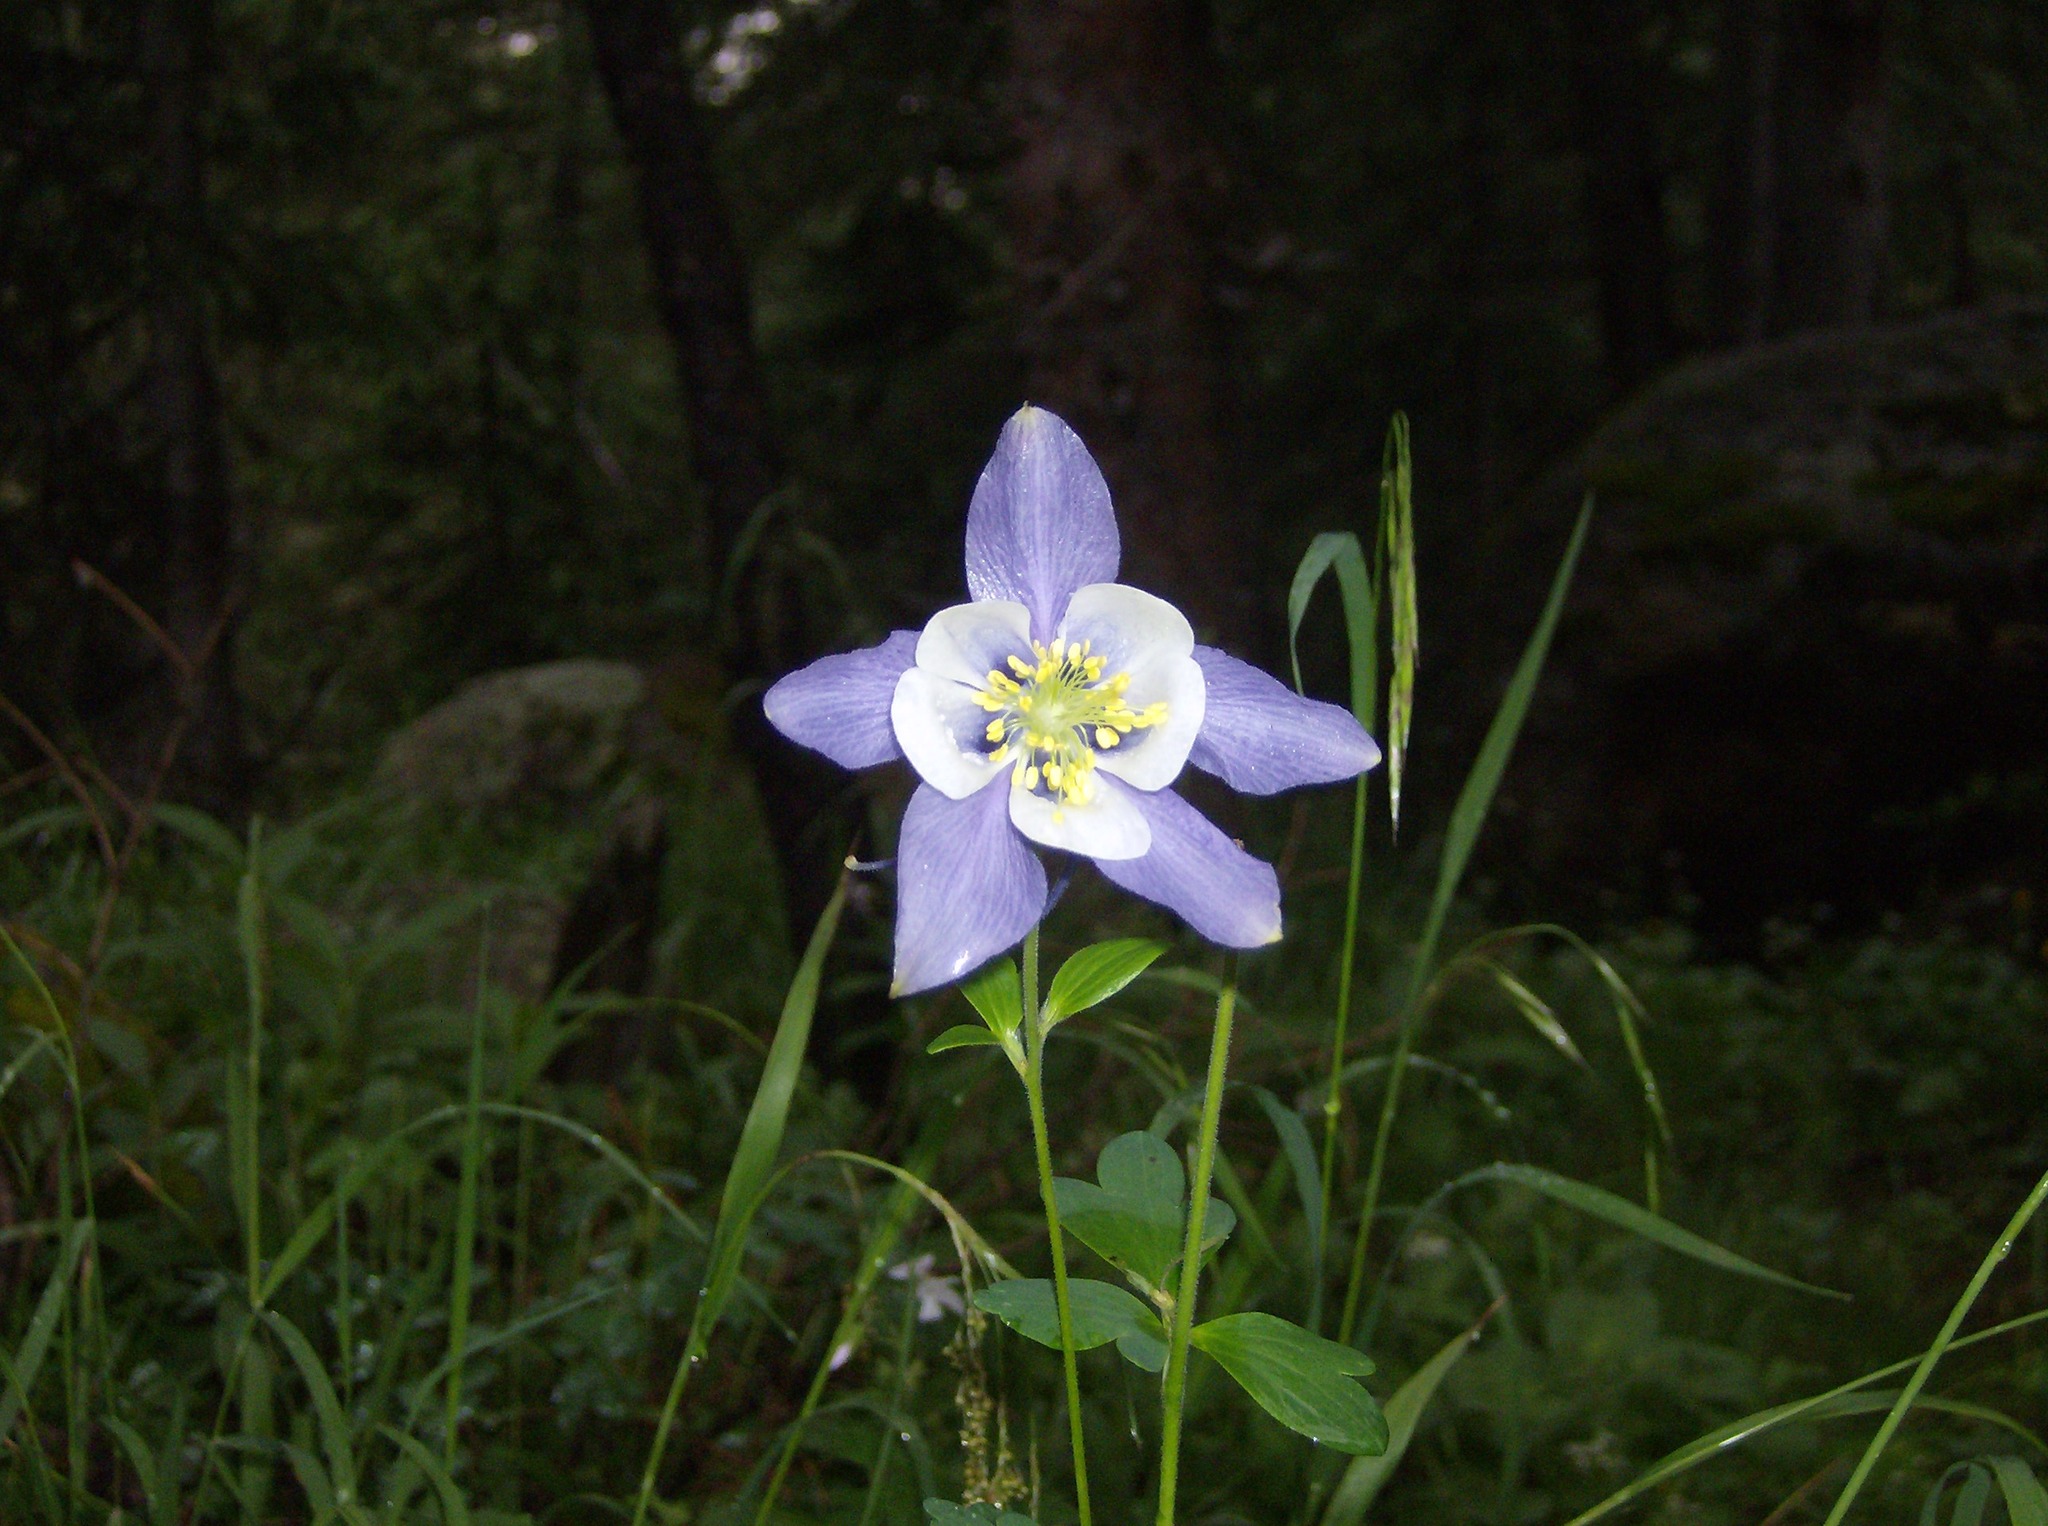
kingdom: Plantae
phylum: Tracheophyta
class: Magnoliopsida
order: Ranunculales
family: Ranunculaceae
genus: Aquilegia
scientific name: Aquilegia coerulea
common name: Rocky mountain columbine
